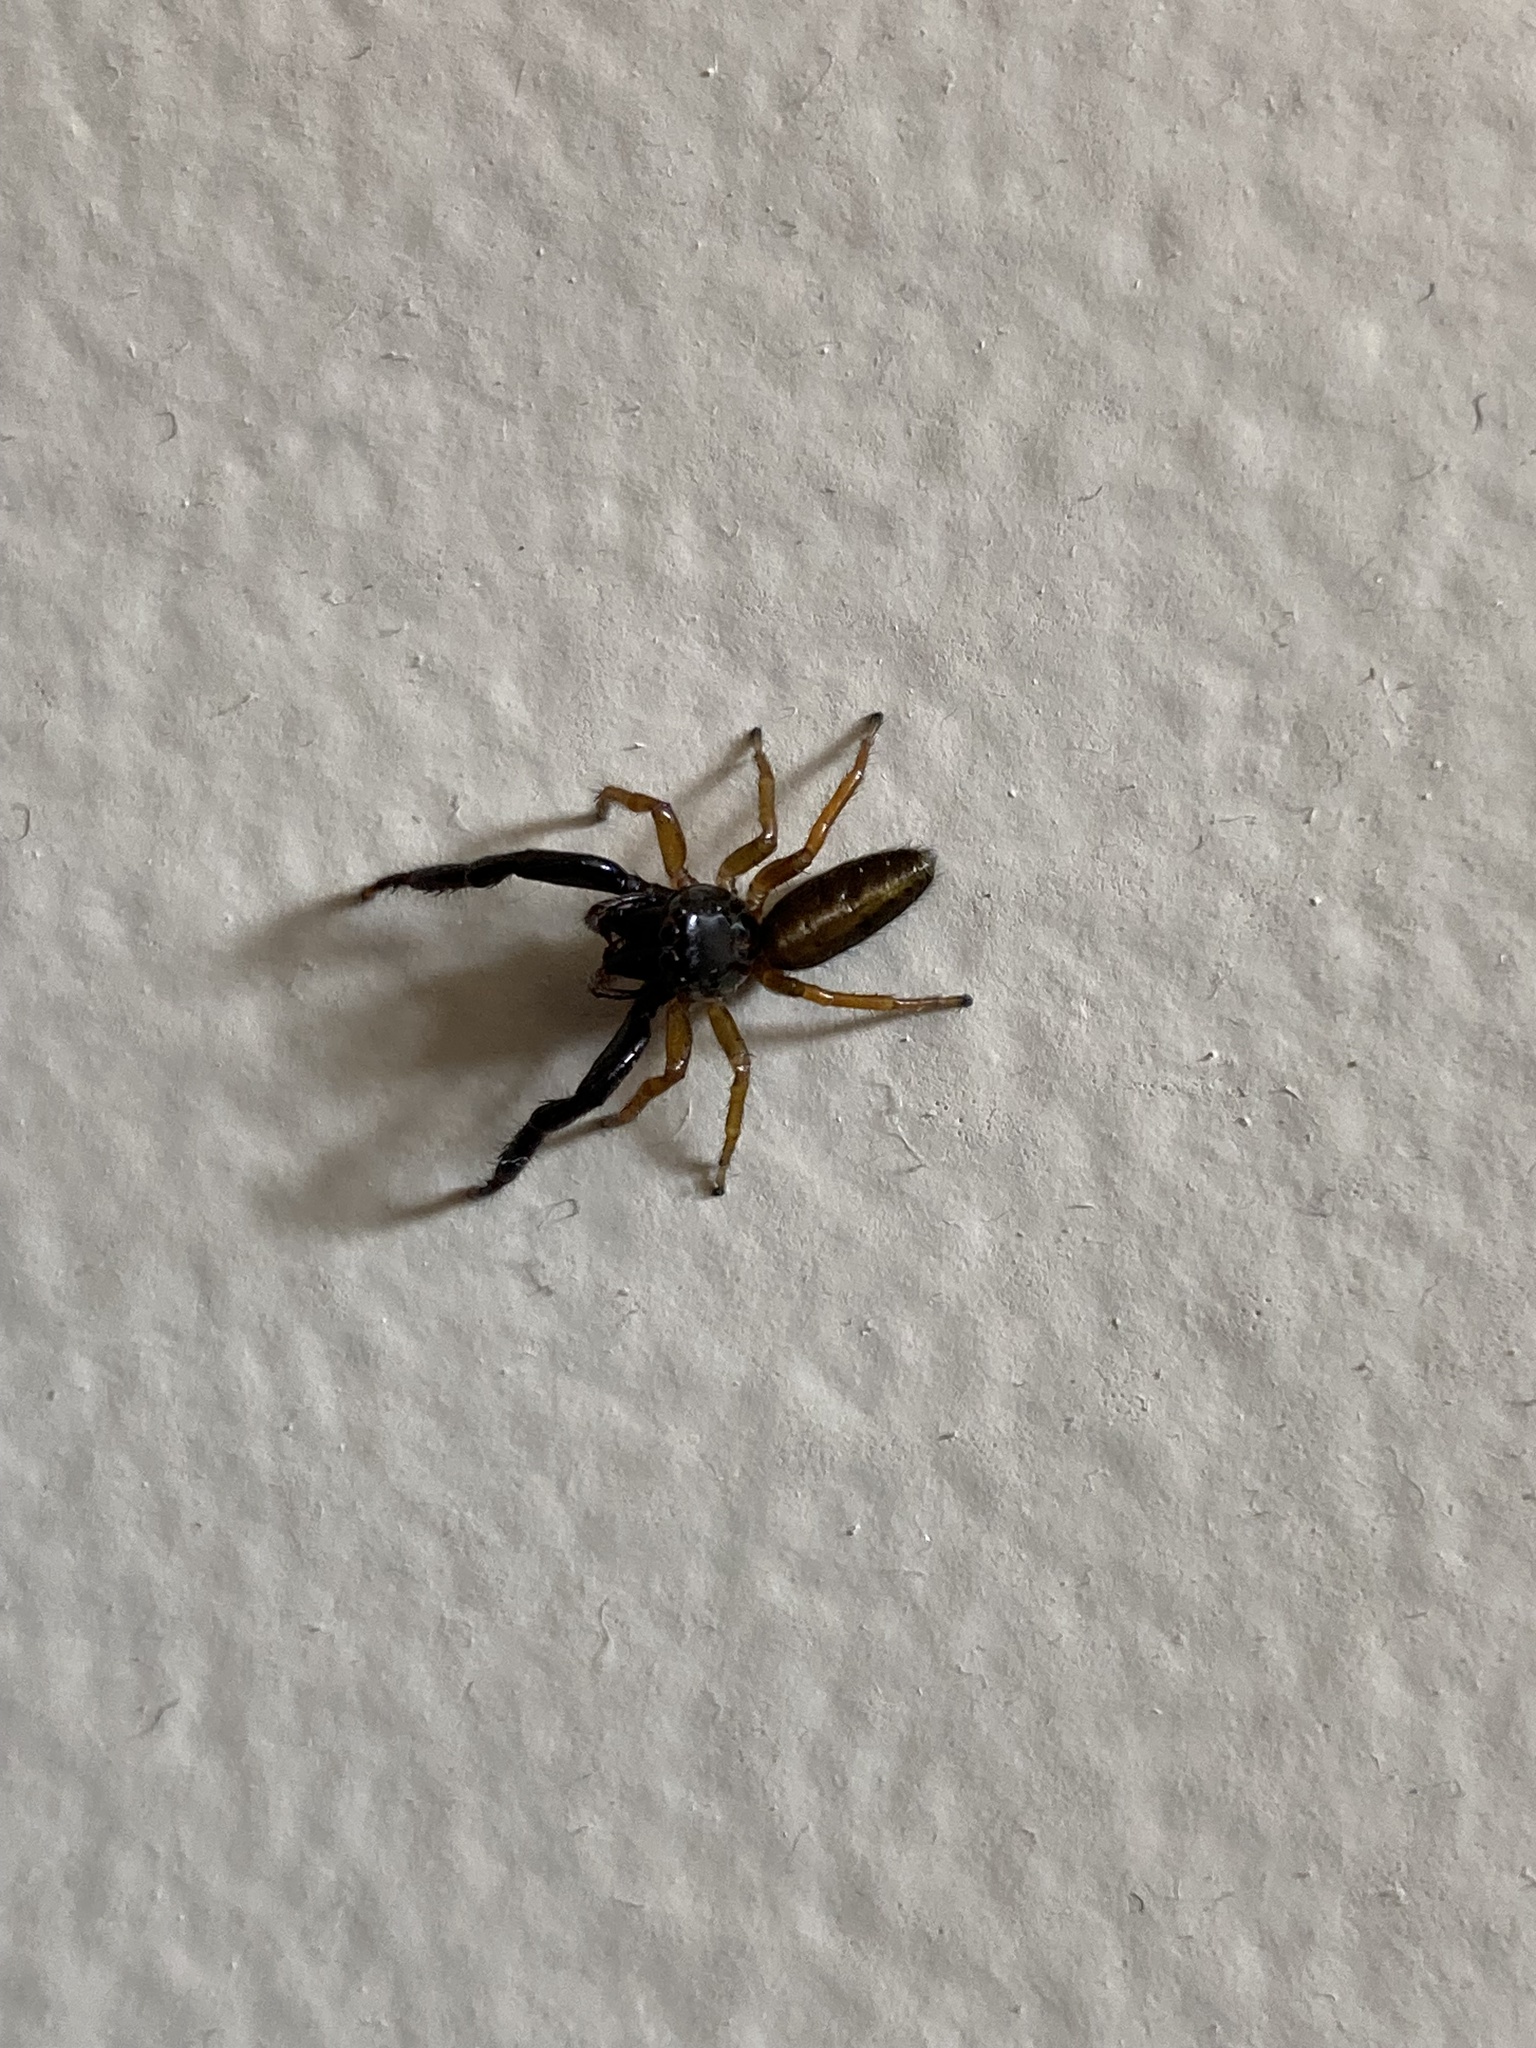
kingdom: Animalia
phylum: Arthropoda
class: Arachnida
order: Araneae
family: Salticidae
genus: Trite
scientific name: Trite planiceps
